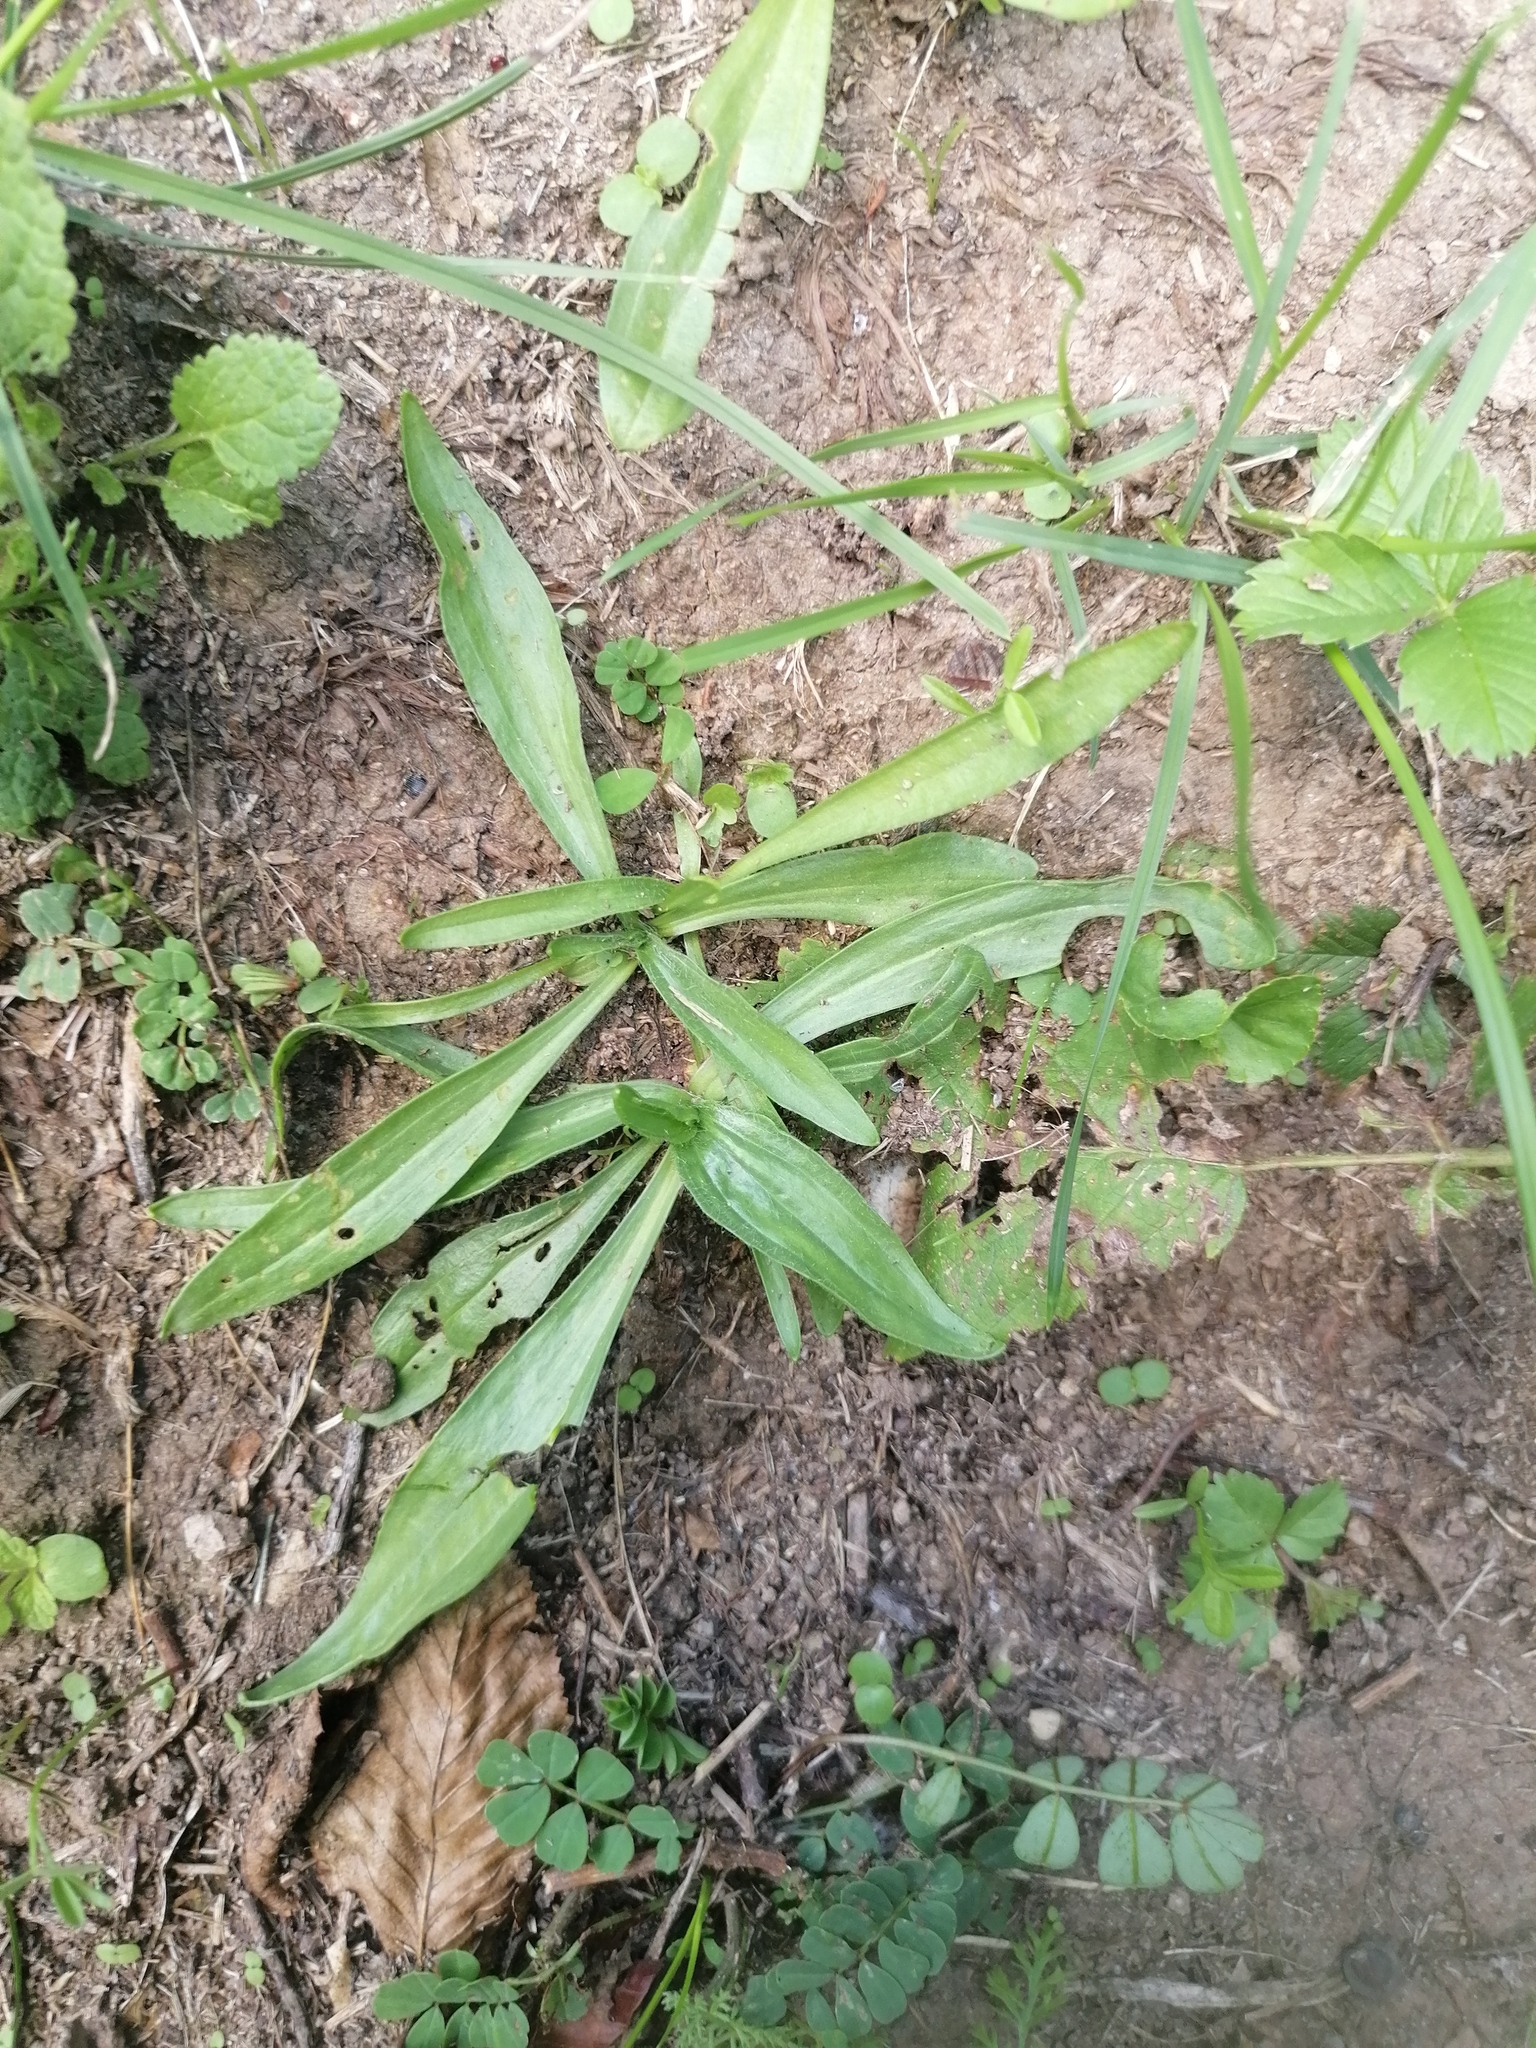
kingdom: Plantae
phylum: Tracheophyta
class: Magnoliopsida
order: Lamiales
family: Plantaginaceae
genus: Plantago
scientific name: Plantago lanceolata
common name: Ribwort plantain
